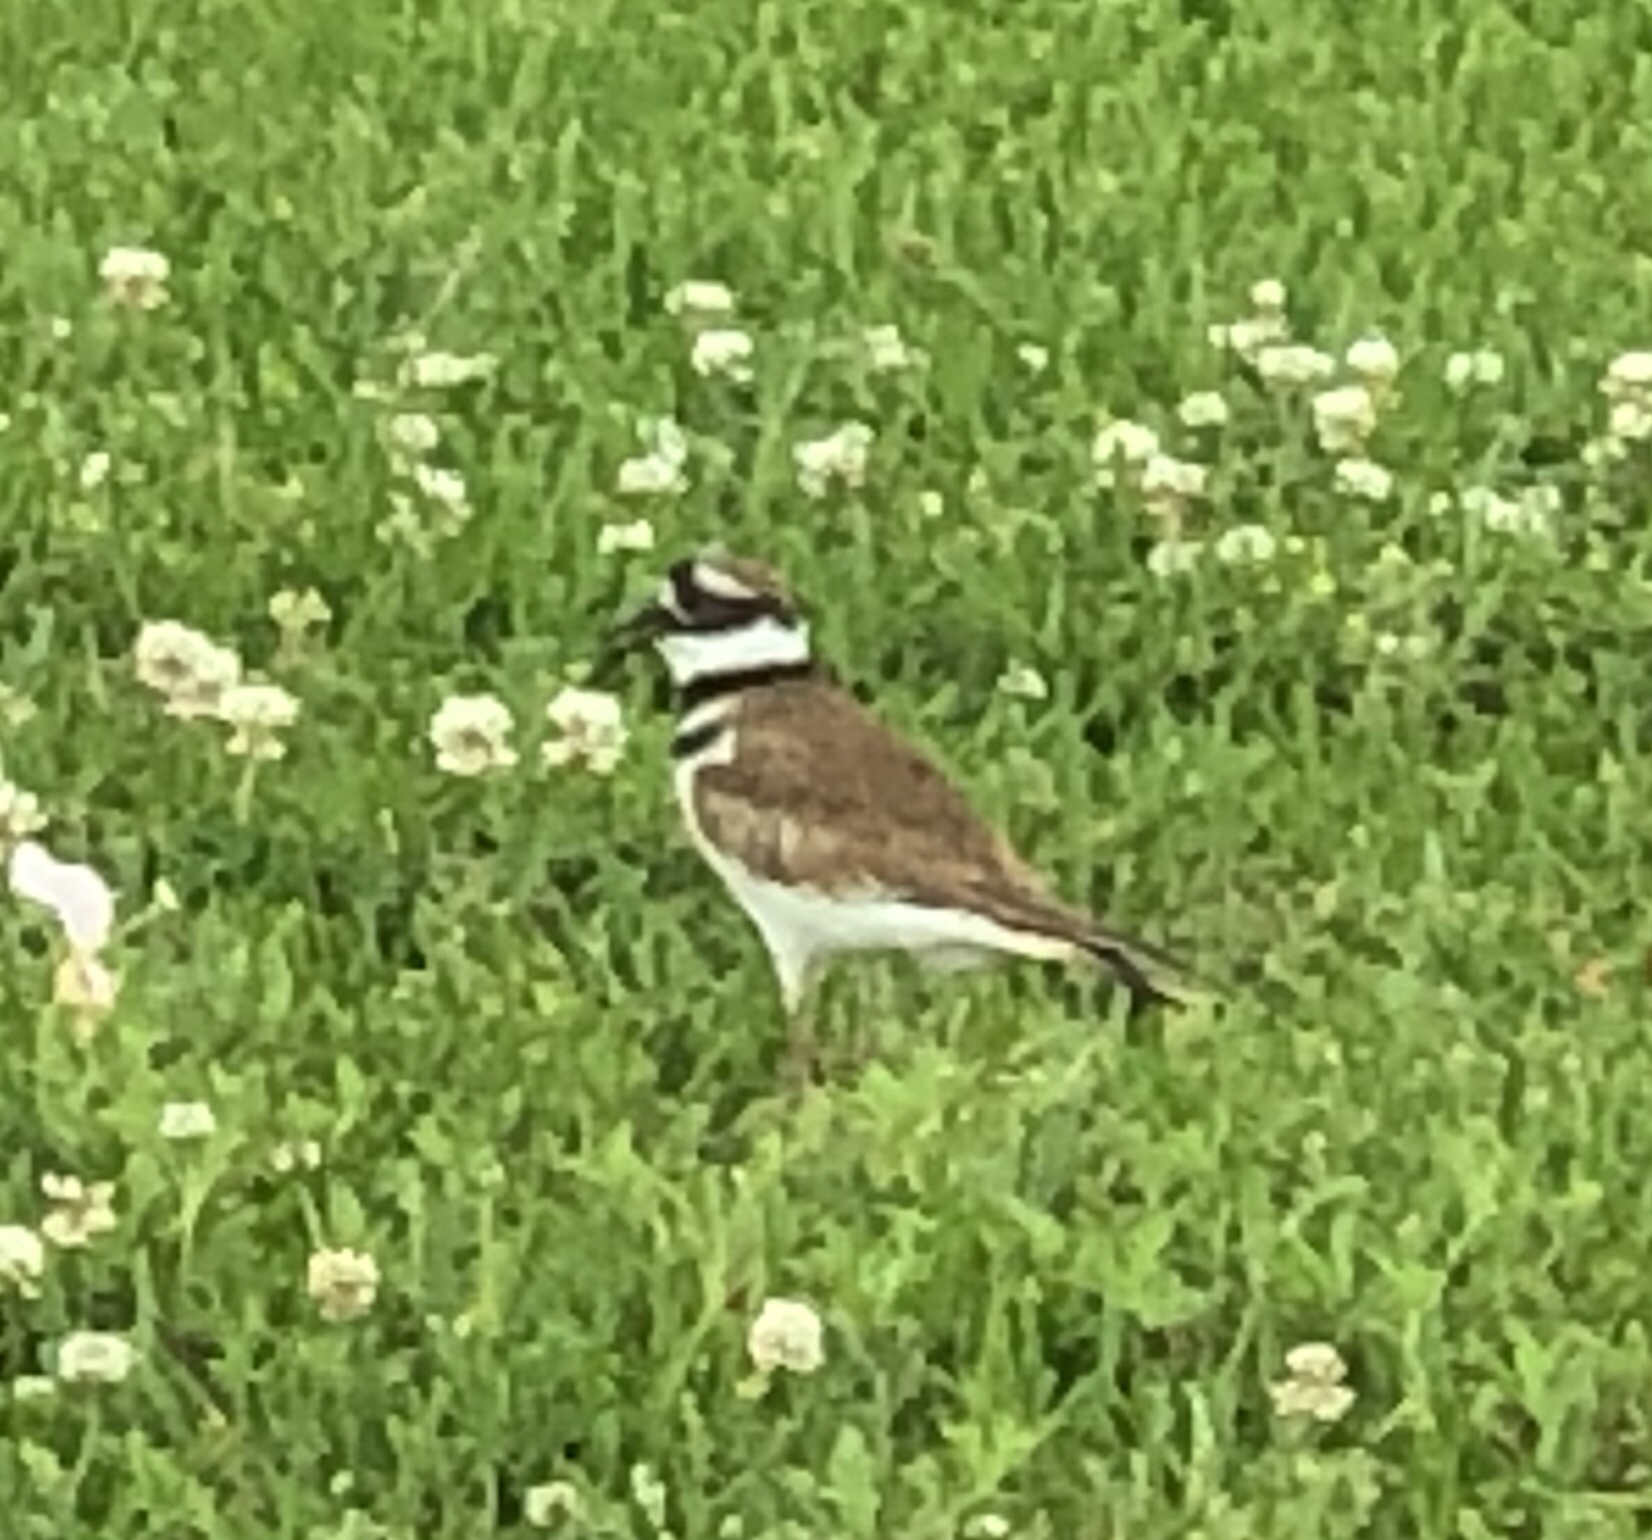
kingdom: Animalia
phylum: Chordata
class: Aves
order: Charadriiformes
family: Charadriidae
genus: Charadrius
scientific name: Charadrius vociferus
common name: Killdeer
